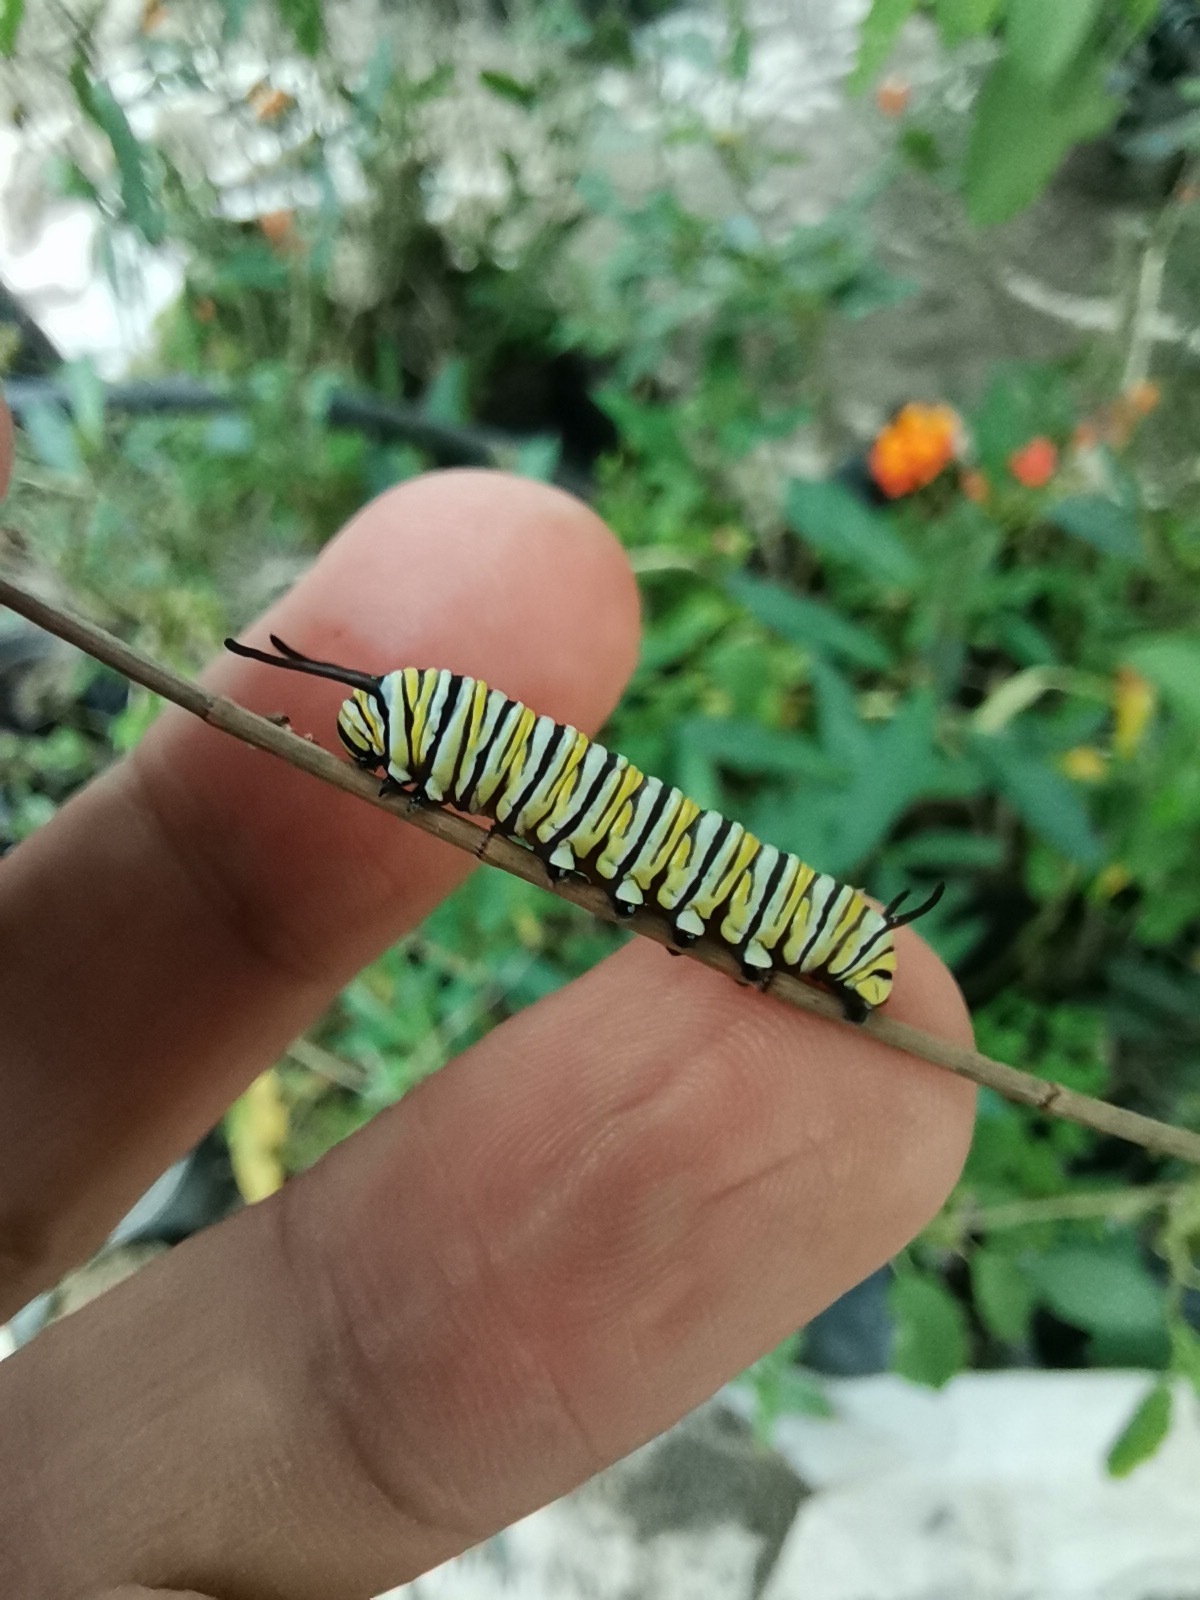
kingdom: Animalia
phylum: Arthropoda
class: Insecta
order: Lepidoptera
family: Nymphalidae
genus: Danaus
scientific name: Danaus plexippus
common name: Monarch
